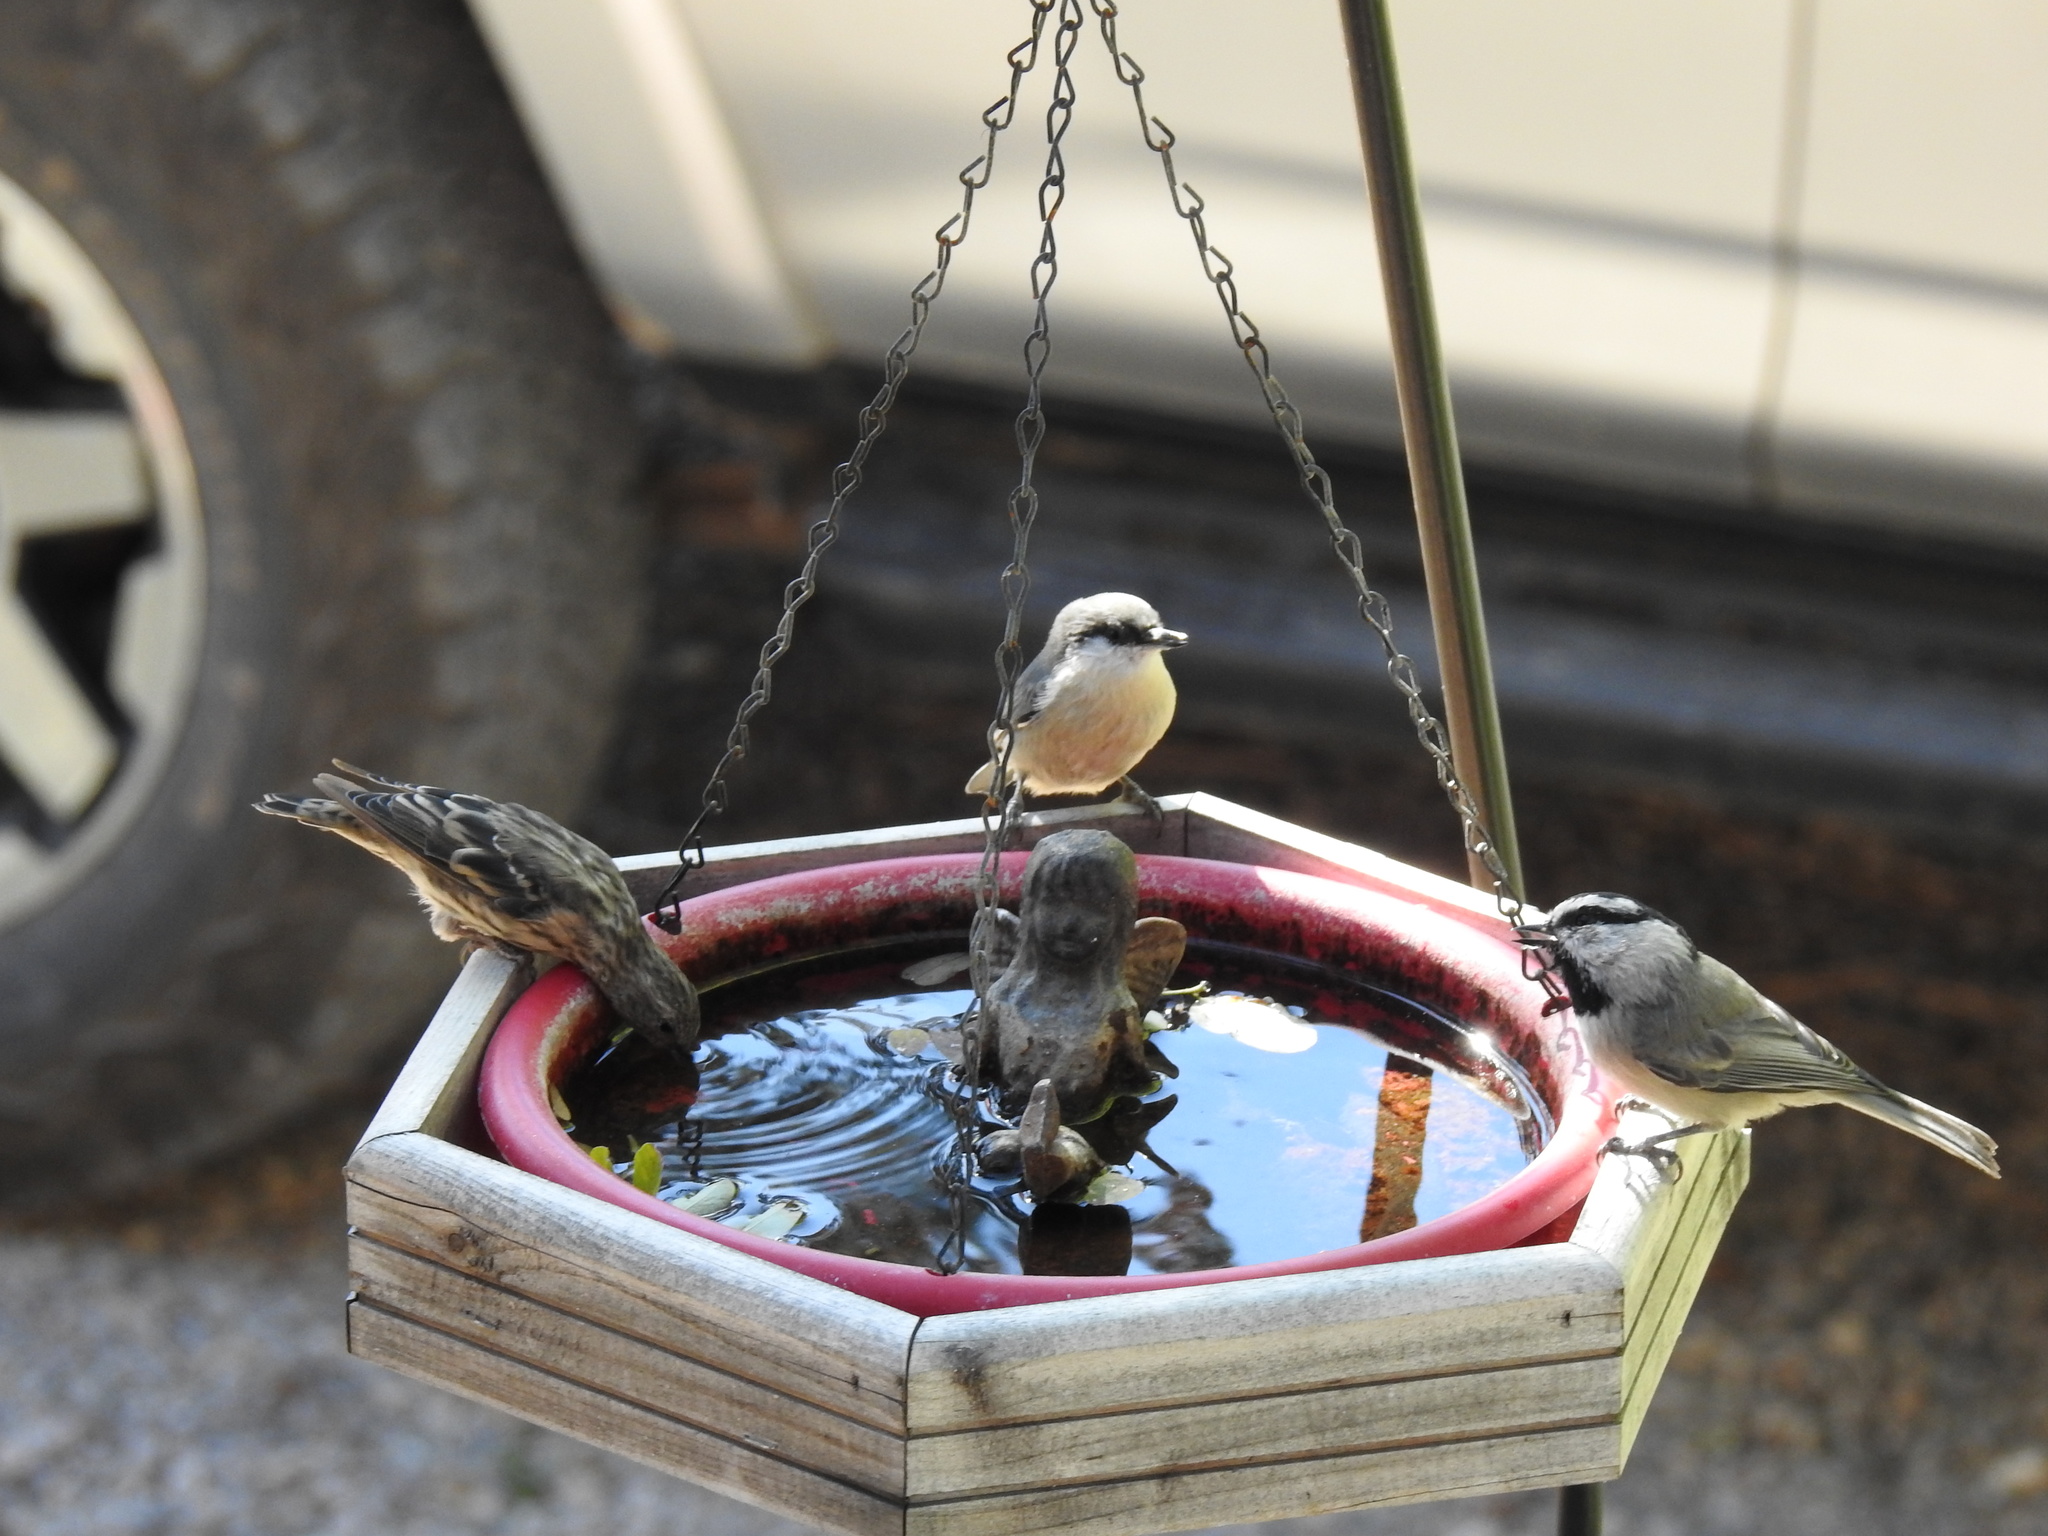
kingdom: Animalia
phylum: Chordata
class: Aves
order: Passeriformes
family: Sittidae
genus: Sitta
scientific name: Sitta pygmaea
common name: Pygmy nuthatch
